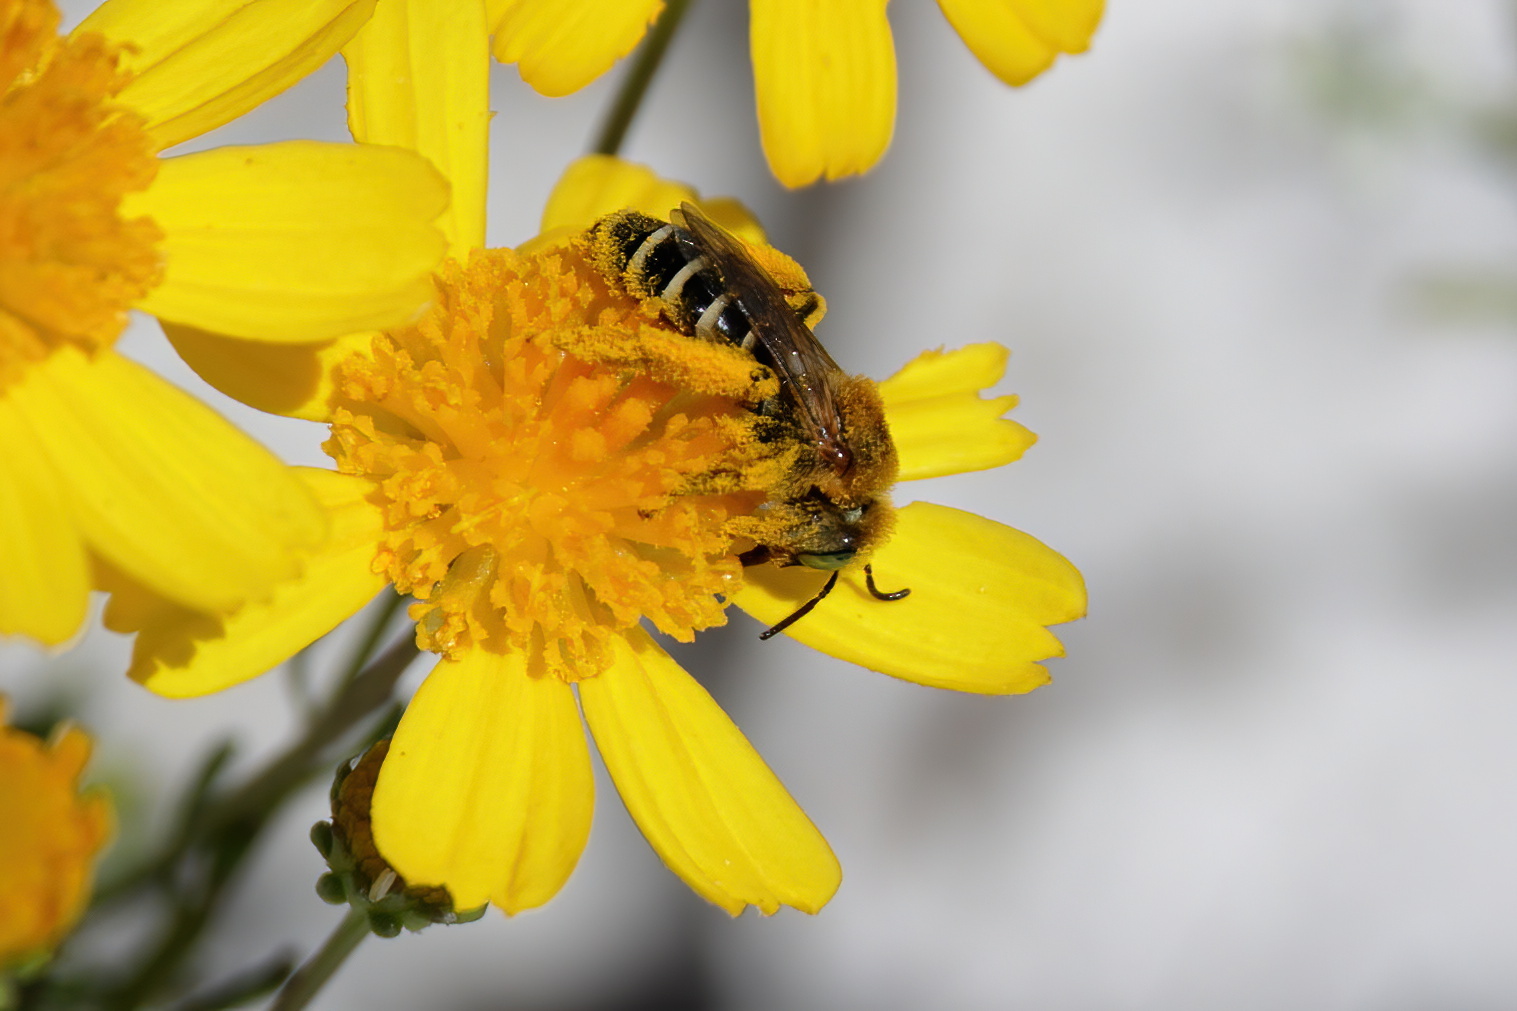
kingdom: Animalia
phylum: Arthropoda
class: Insecta
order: Hymenoptera
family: Melittidae
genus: Hesperapis
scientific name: Hesperapis oraria
